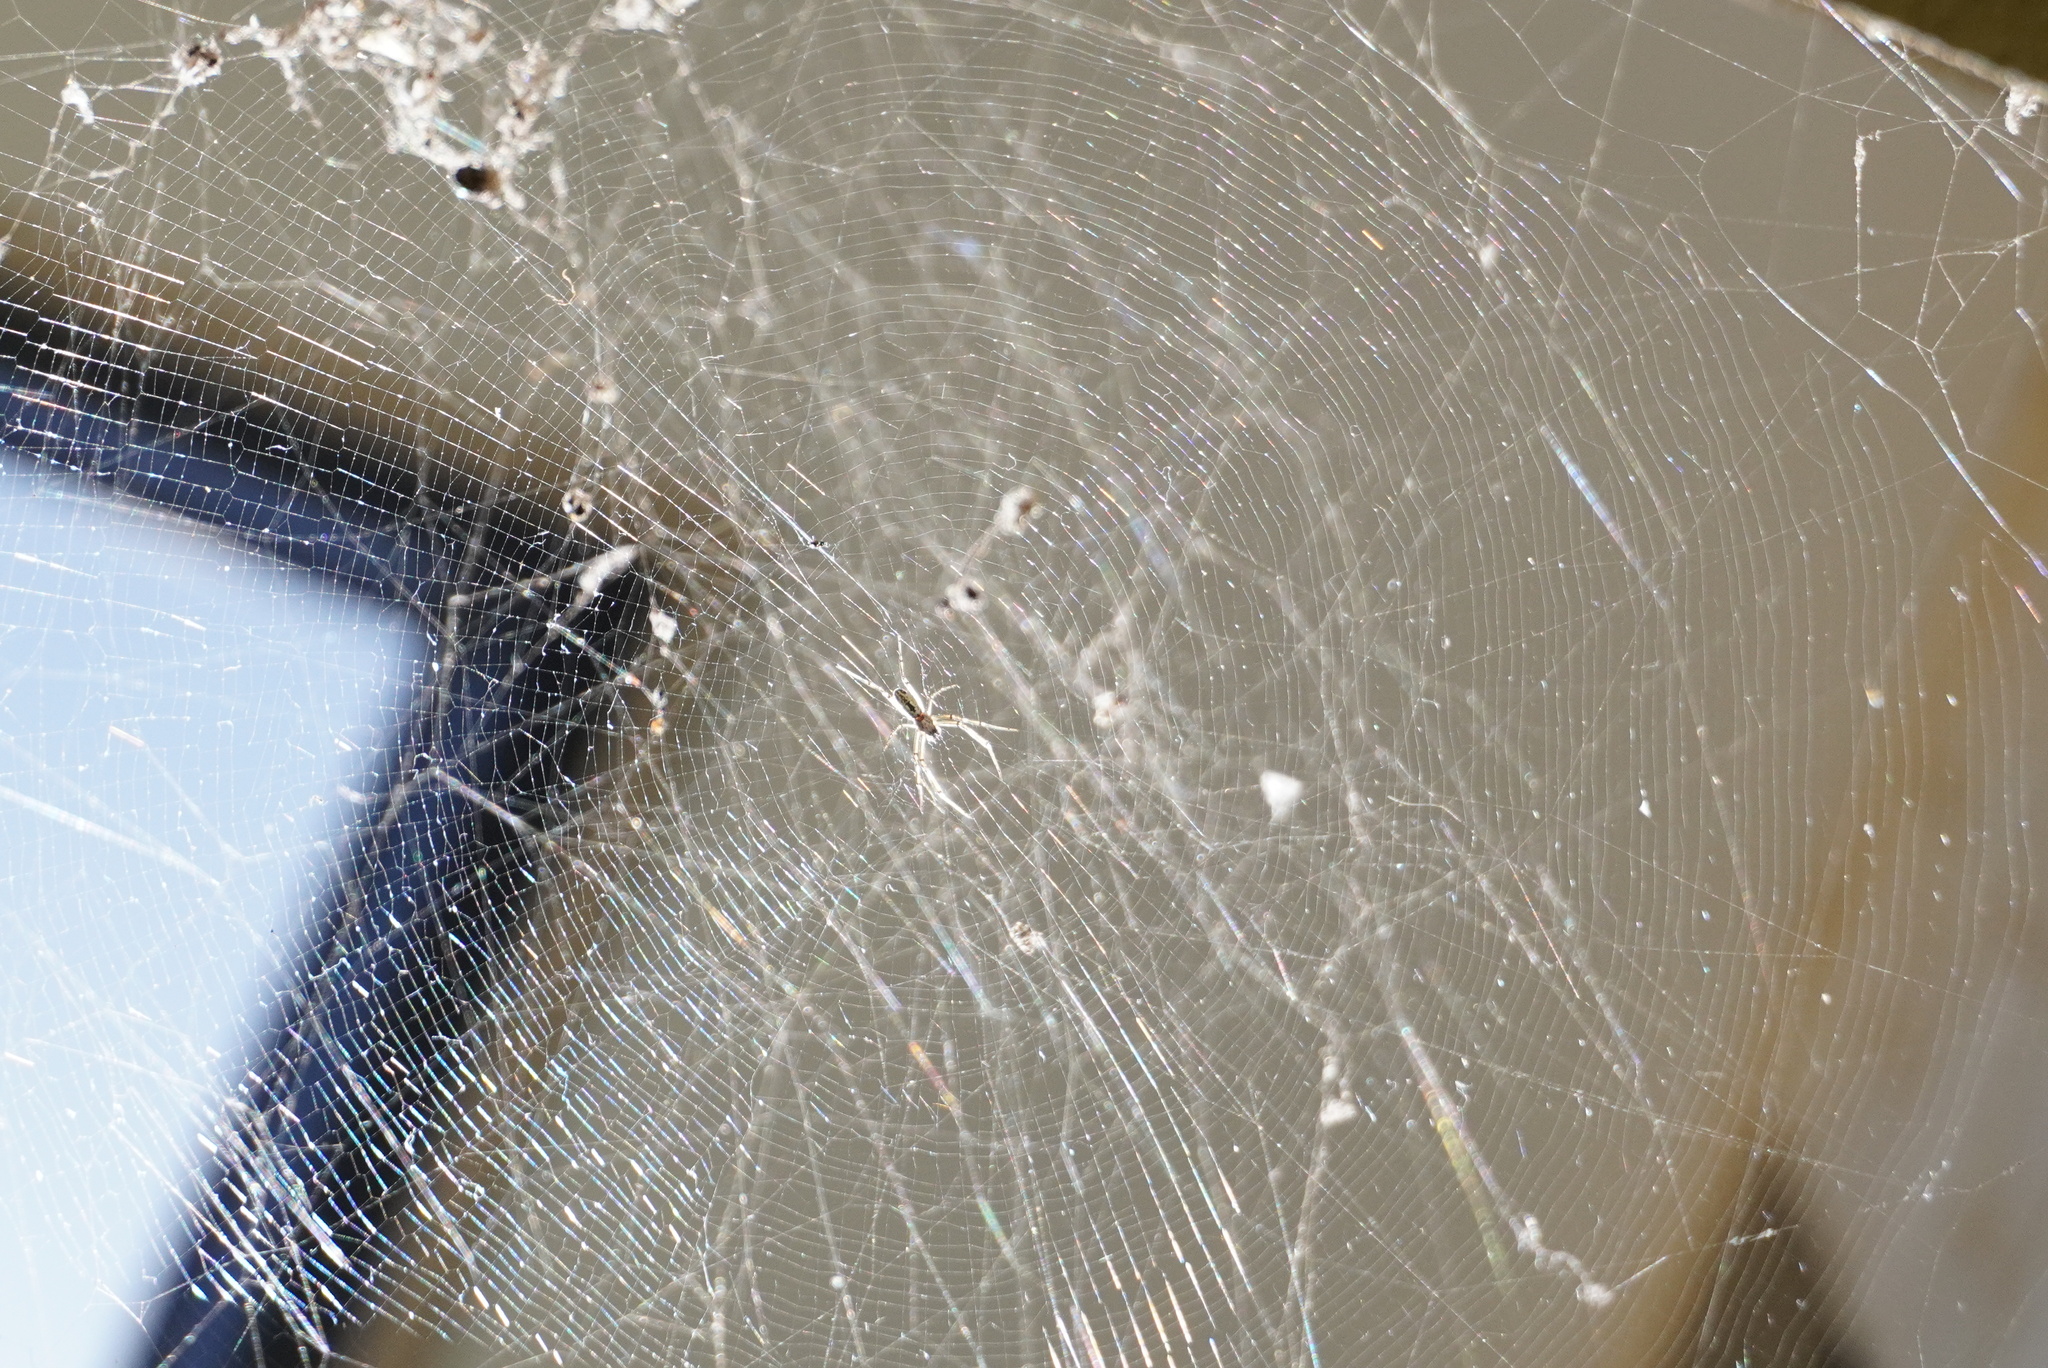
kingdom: Animalia
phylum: Arthropoda
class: Arachnida
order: Araneae
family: Araneidae
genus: Trichonephila
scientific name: Trichonephila edulis
